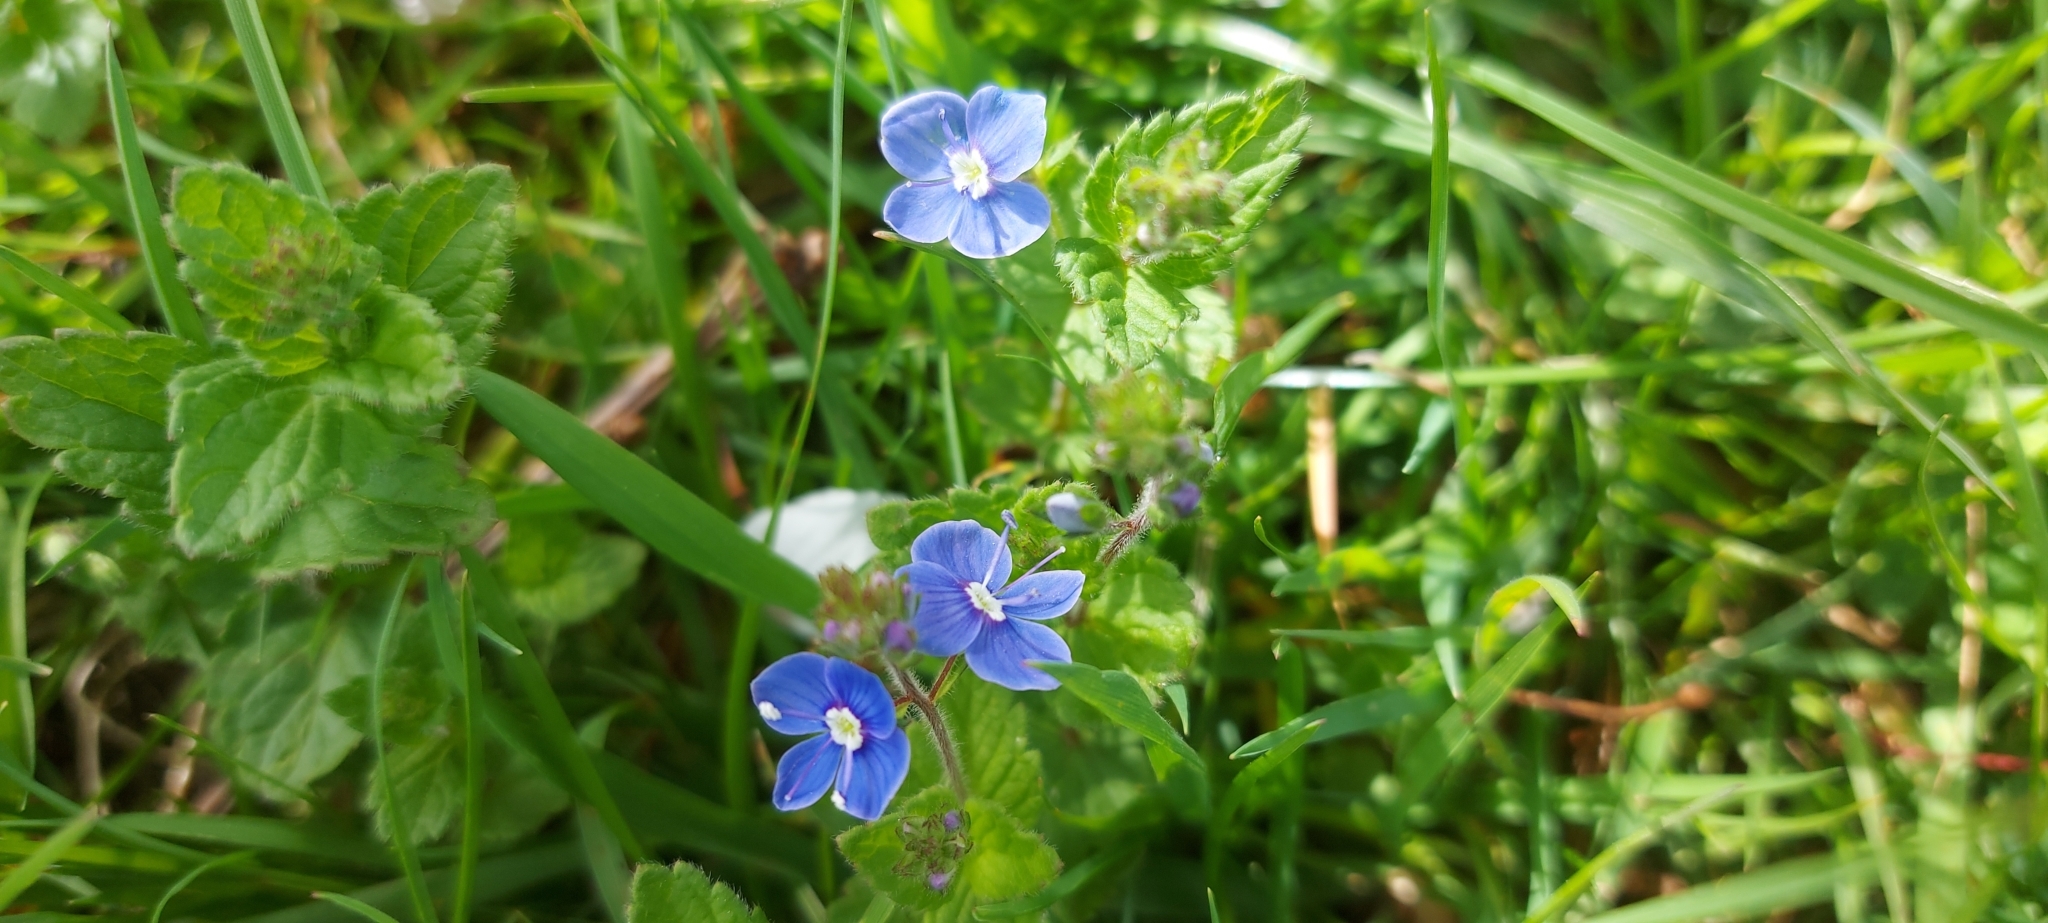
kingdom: Plantae
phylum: Tracheophyta
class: Magnoliopsida
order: Lamiales
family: Plantaginaceae
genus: Veronica
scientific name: Veronica chamaedrys
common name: Germander speedwell
